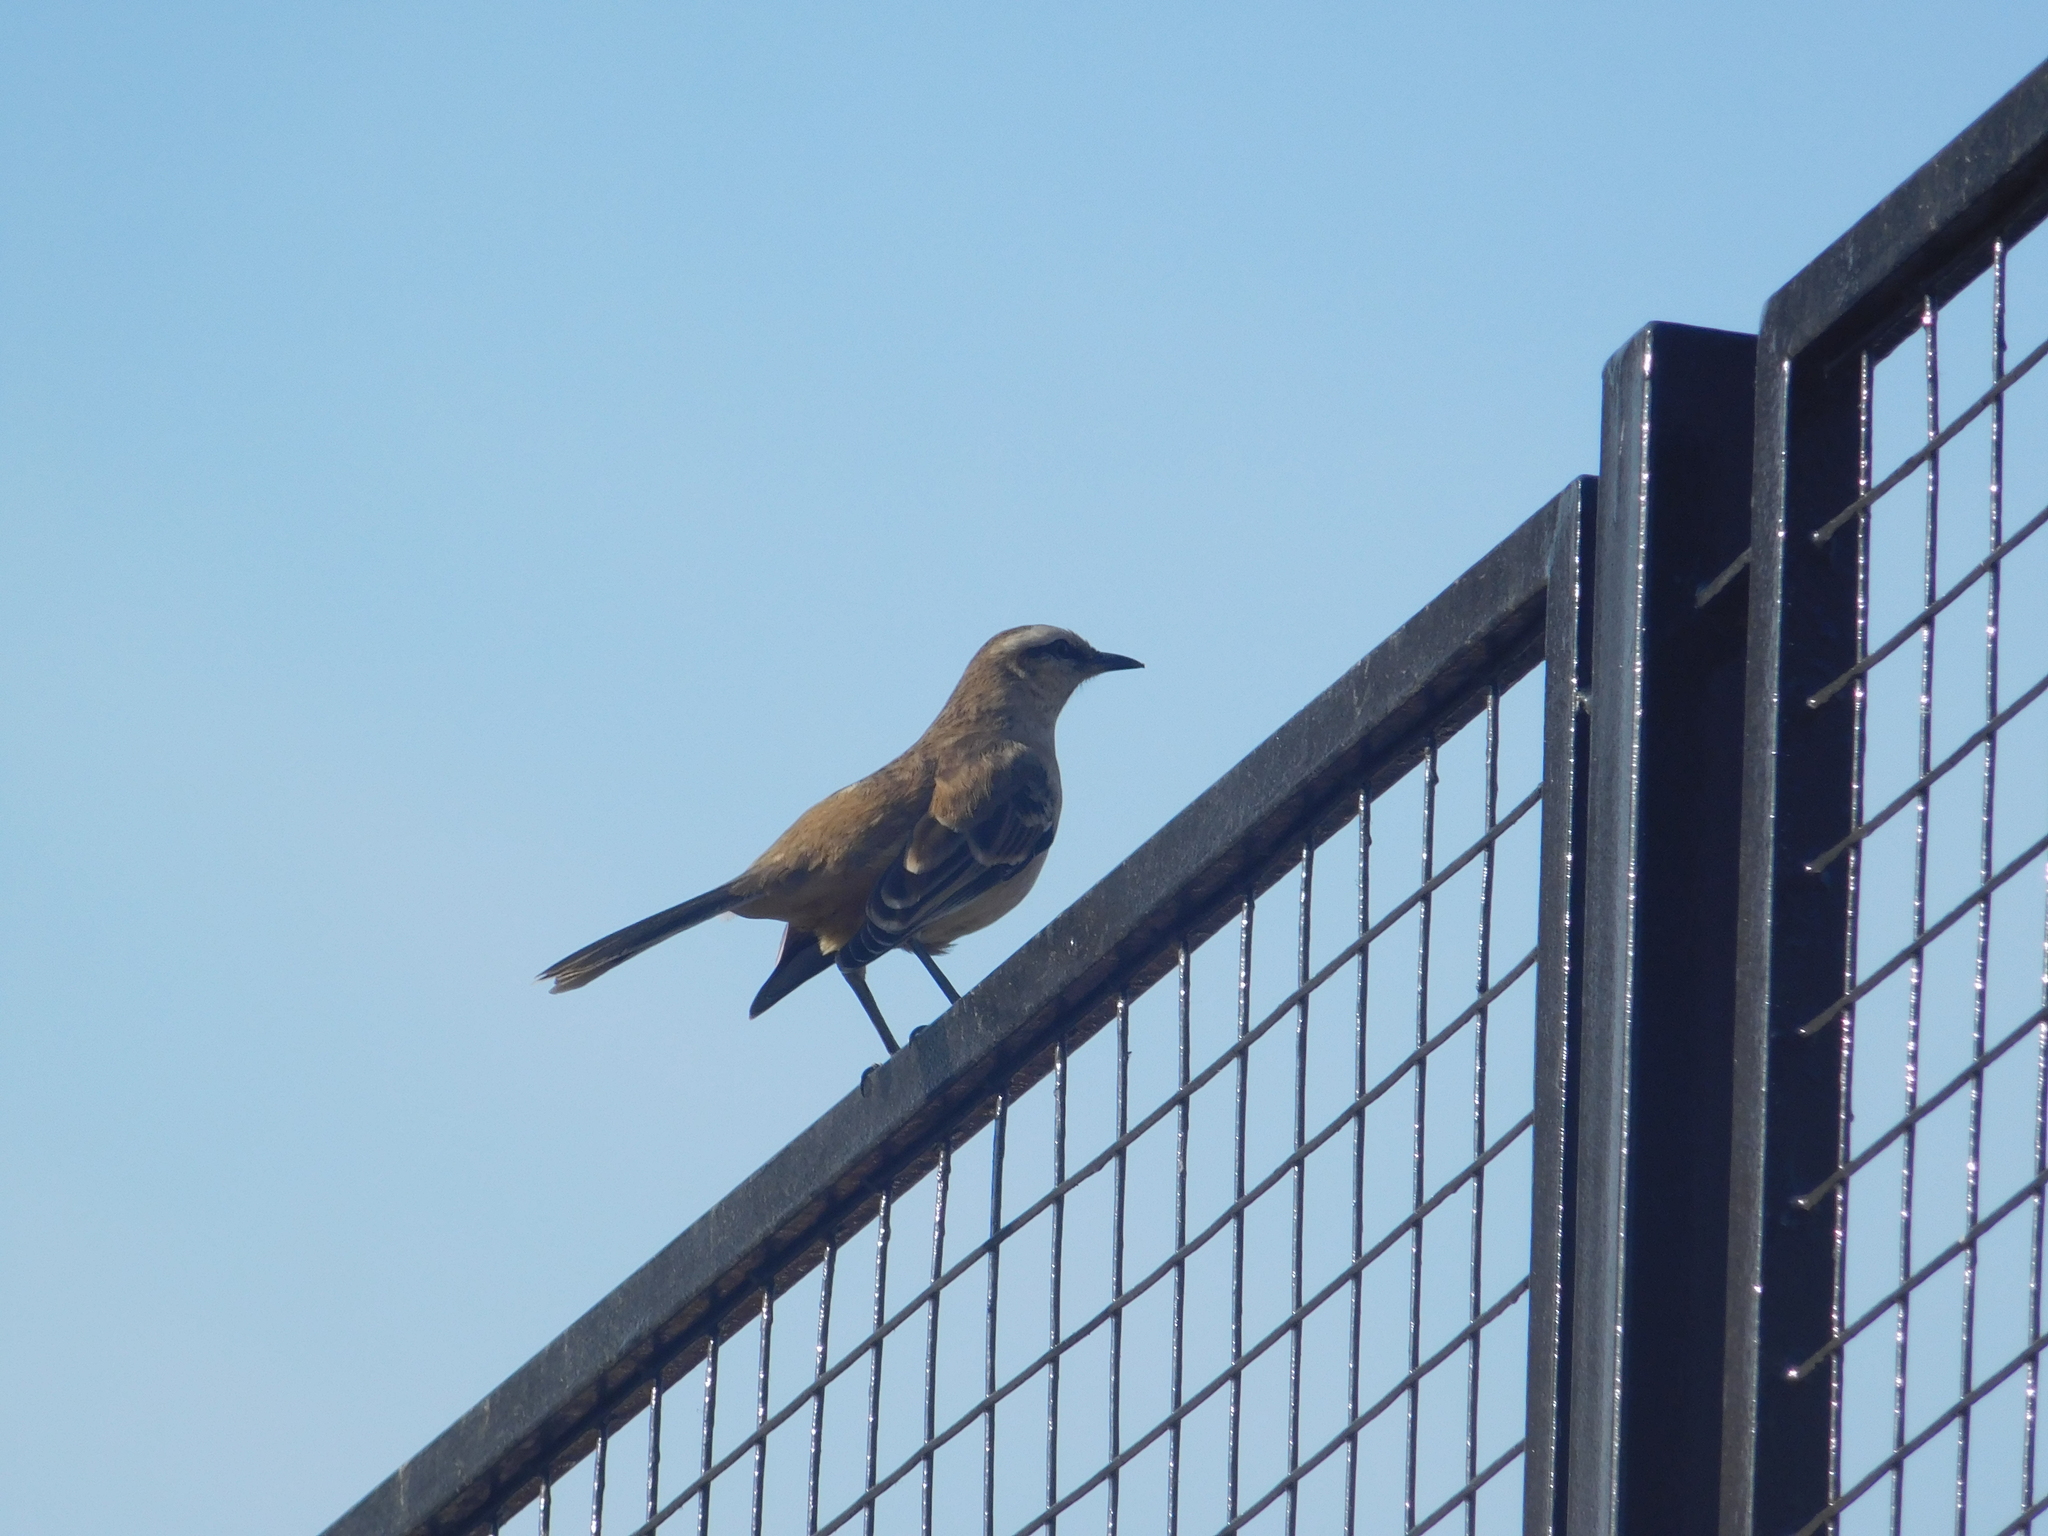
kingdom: Animalia
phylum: Chordata
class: Aves
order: Passeriformes
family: Mimidae
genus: Mimus
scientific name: Mimus saturninus
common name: Chalk-browed mockingbird
